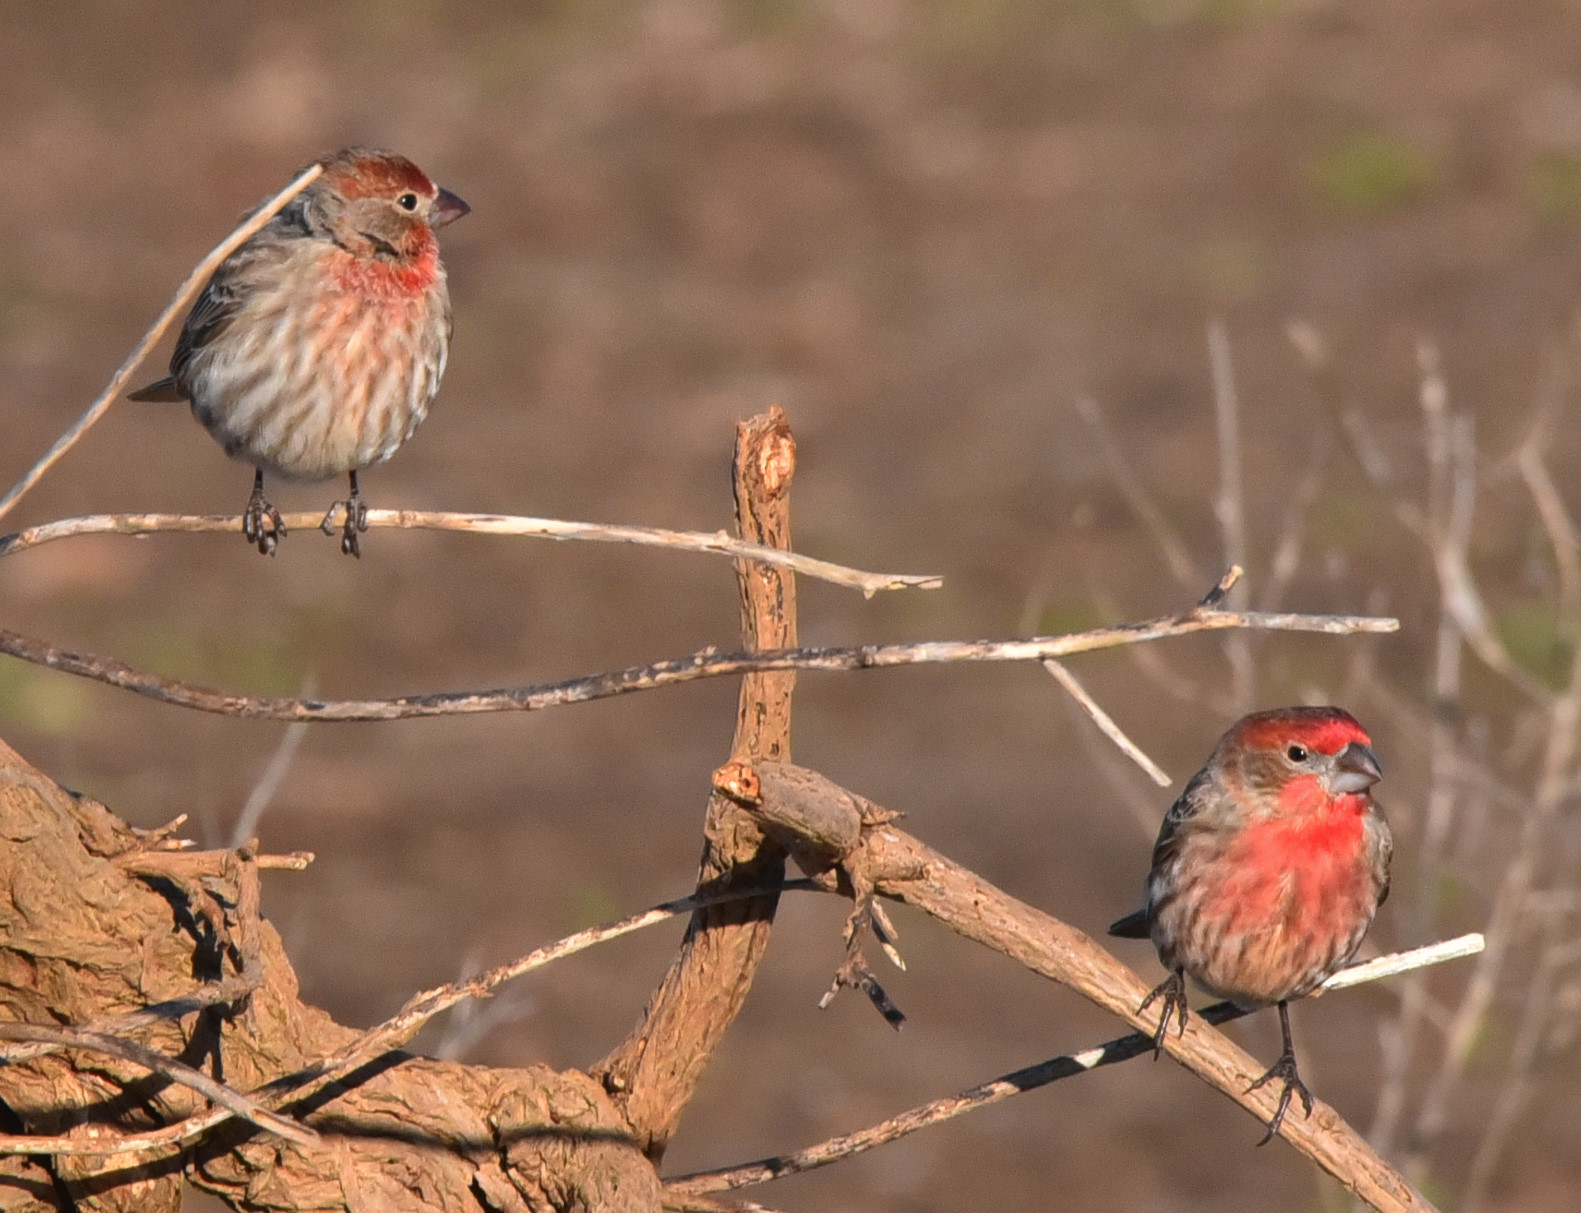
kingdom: Animalia
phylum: Chordata
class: Aves
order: Passeriformes
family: Fringillidae
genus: Haemorhous
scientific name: Haemorhous mexicanus
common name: House finch
